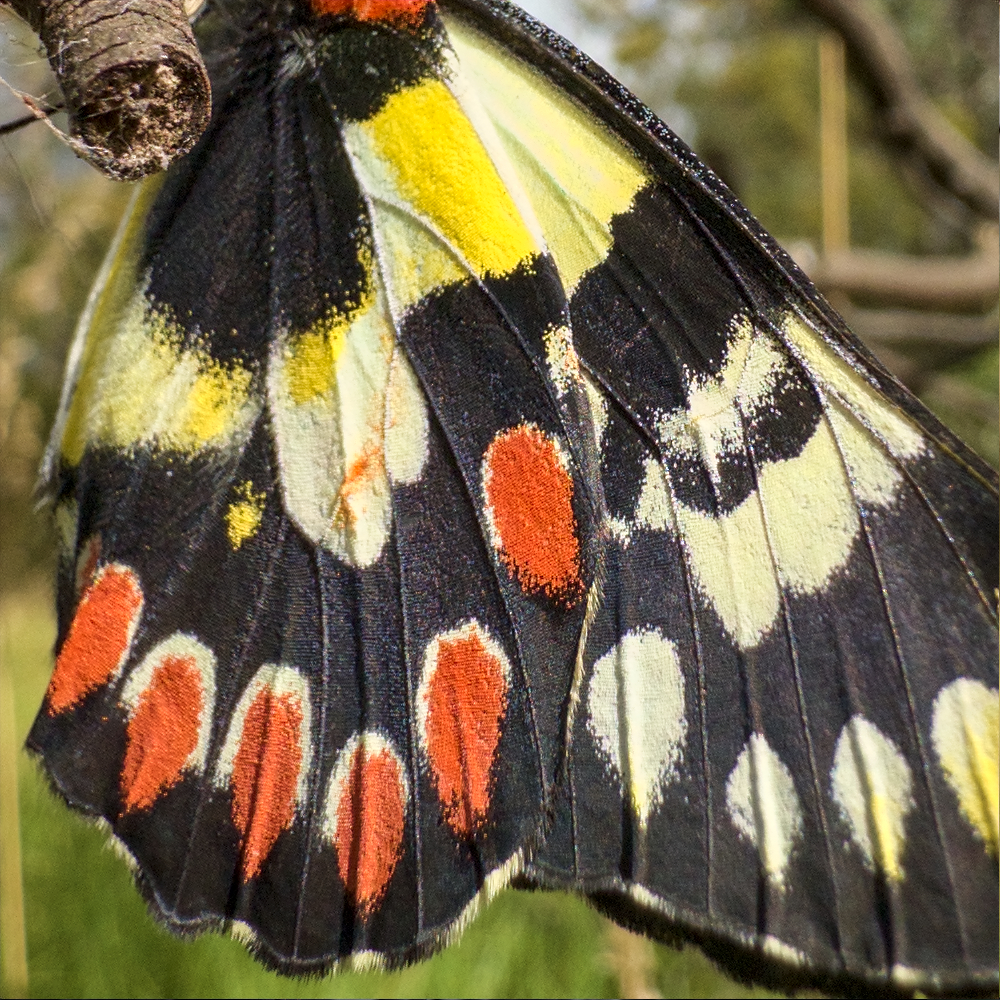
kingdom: Animalia
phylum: Arthropoda
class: Insecta
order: Lepidoptera
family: Pieridae
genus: Delias
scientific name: Delias aganippe
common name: Red-spotted jezebel
